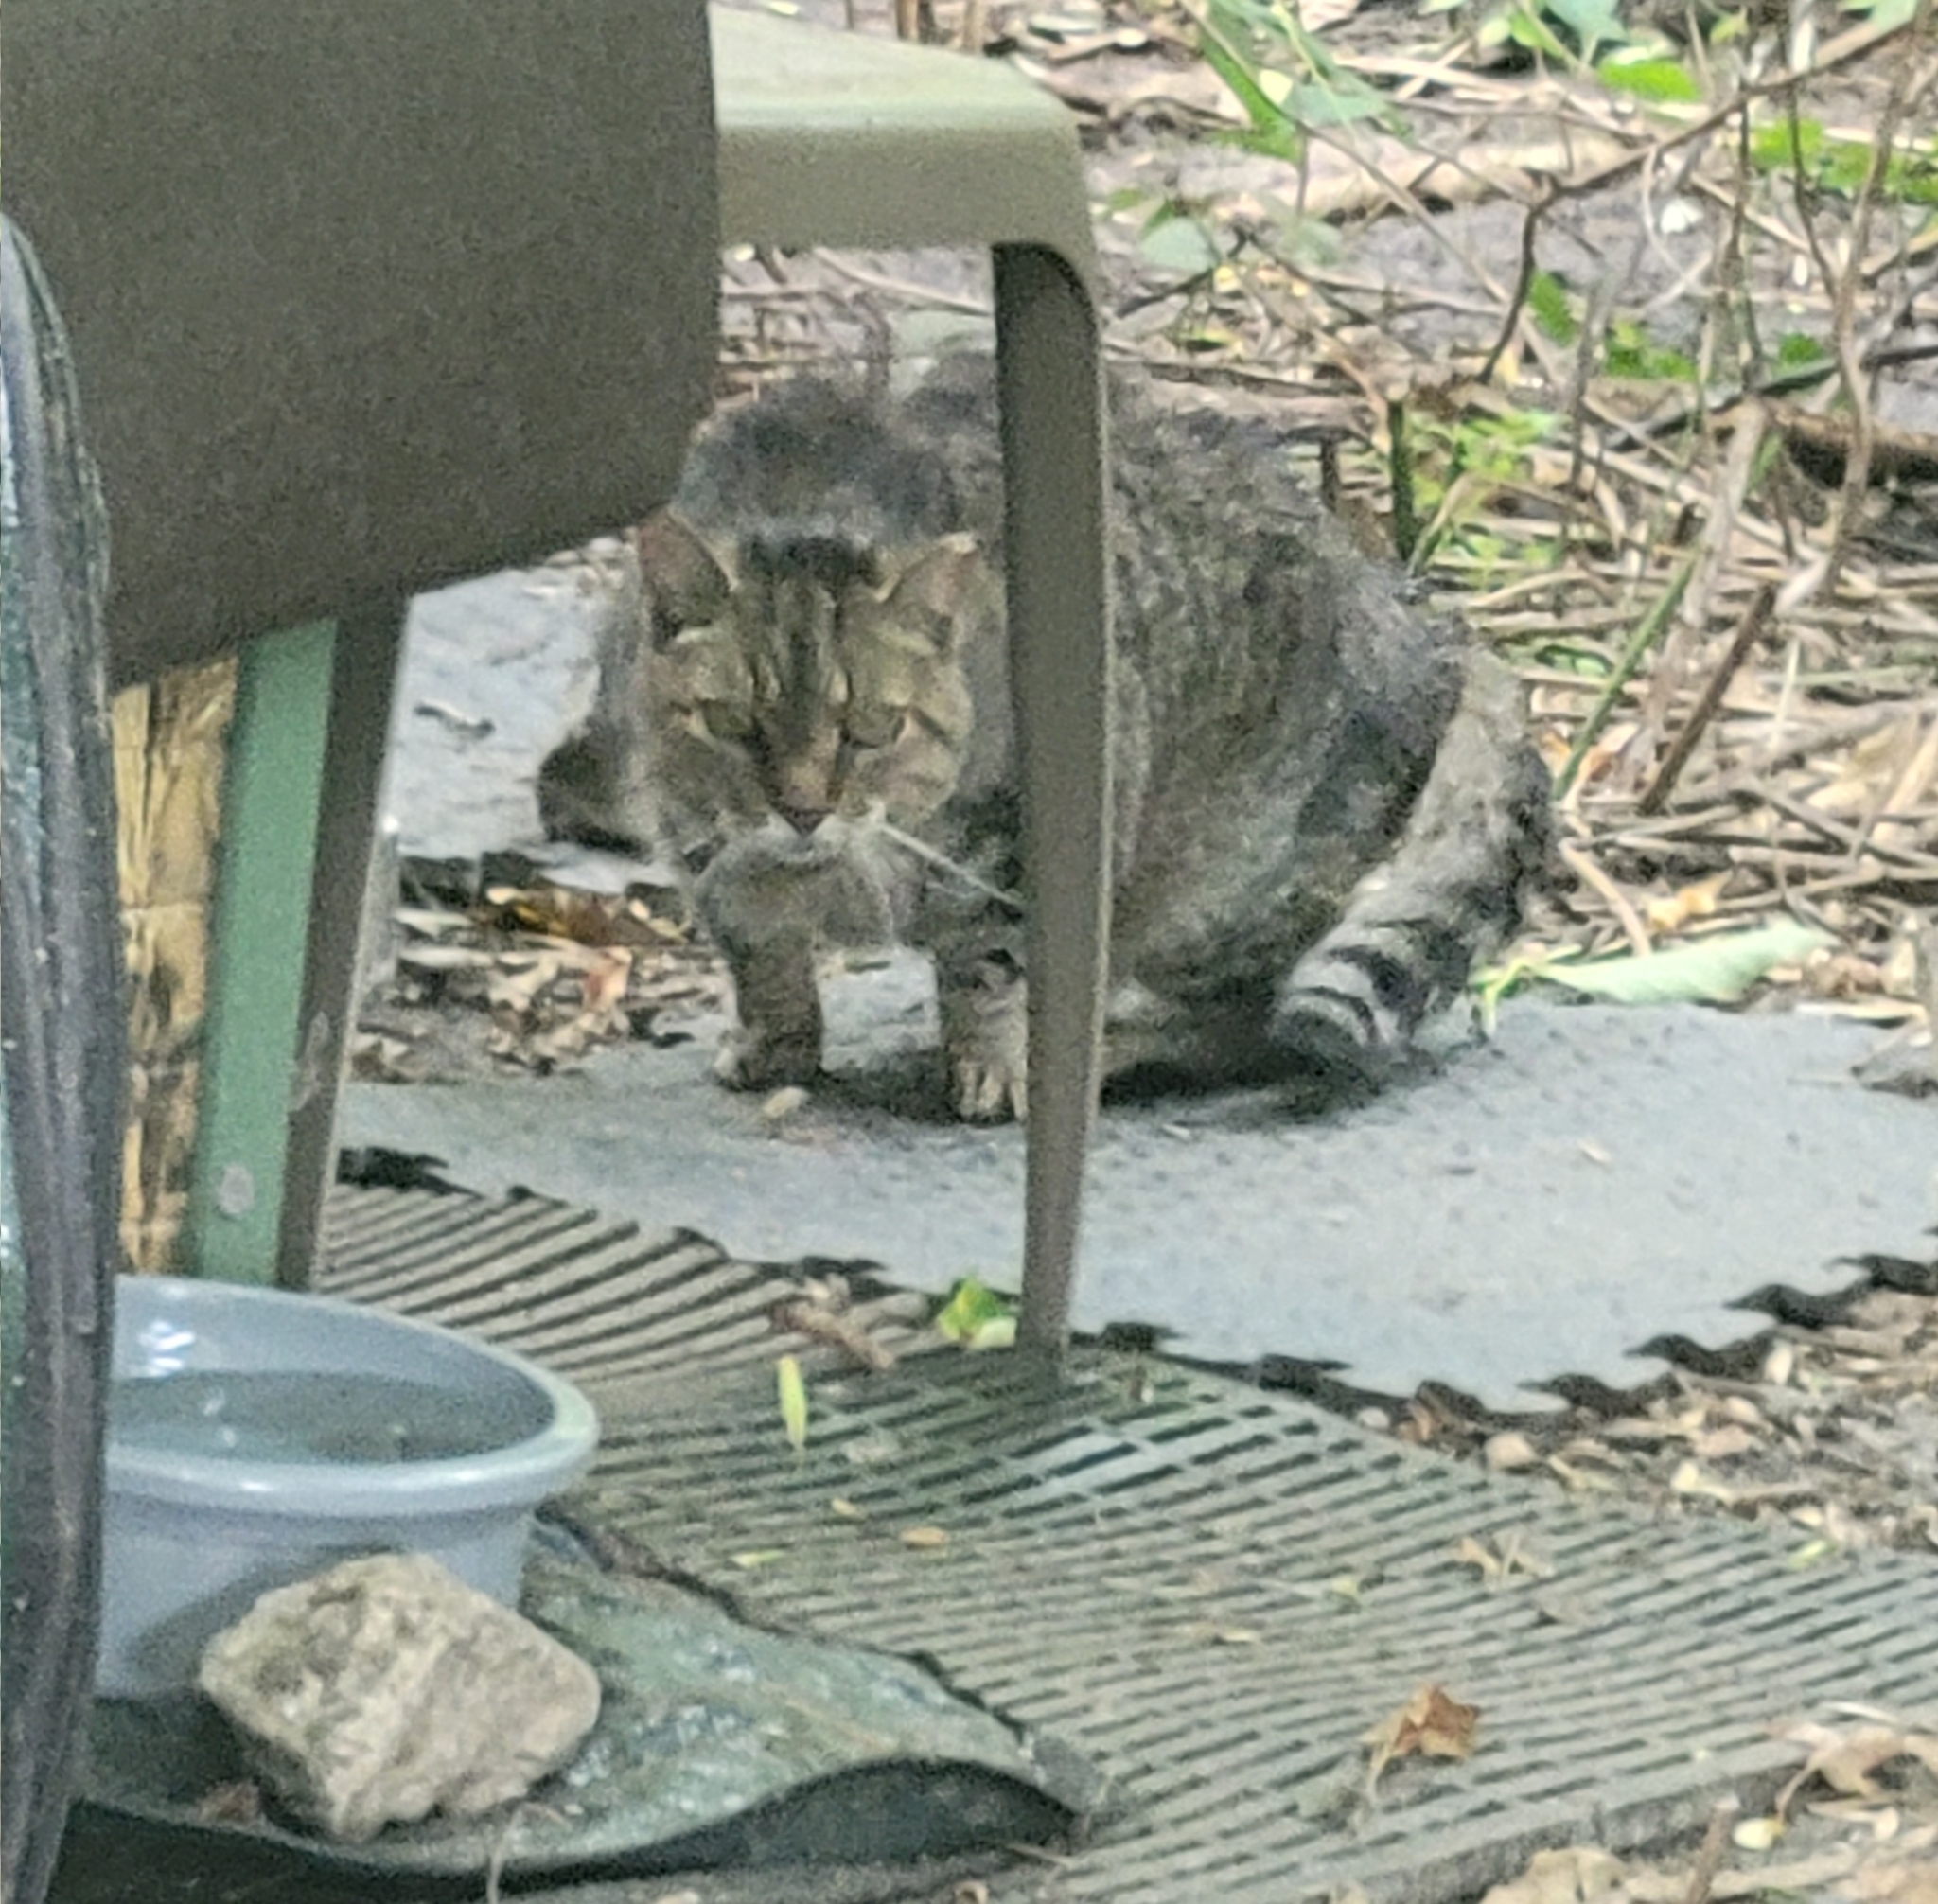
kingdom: Animalia
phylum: Chordata
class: Mammalia
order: Carnivora
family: Felidae
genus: Felis
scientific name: Felis catus
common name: Domestic cat
